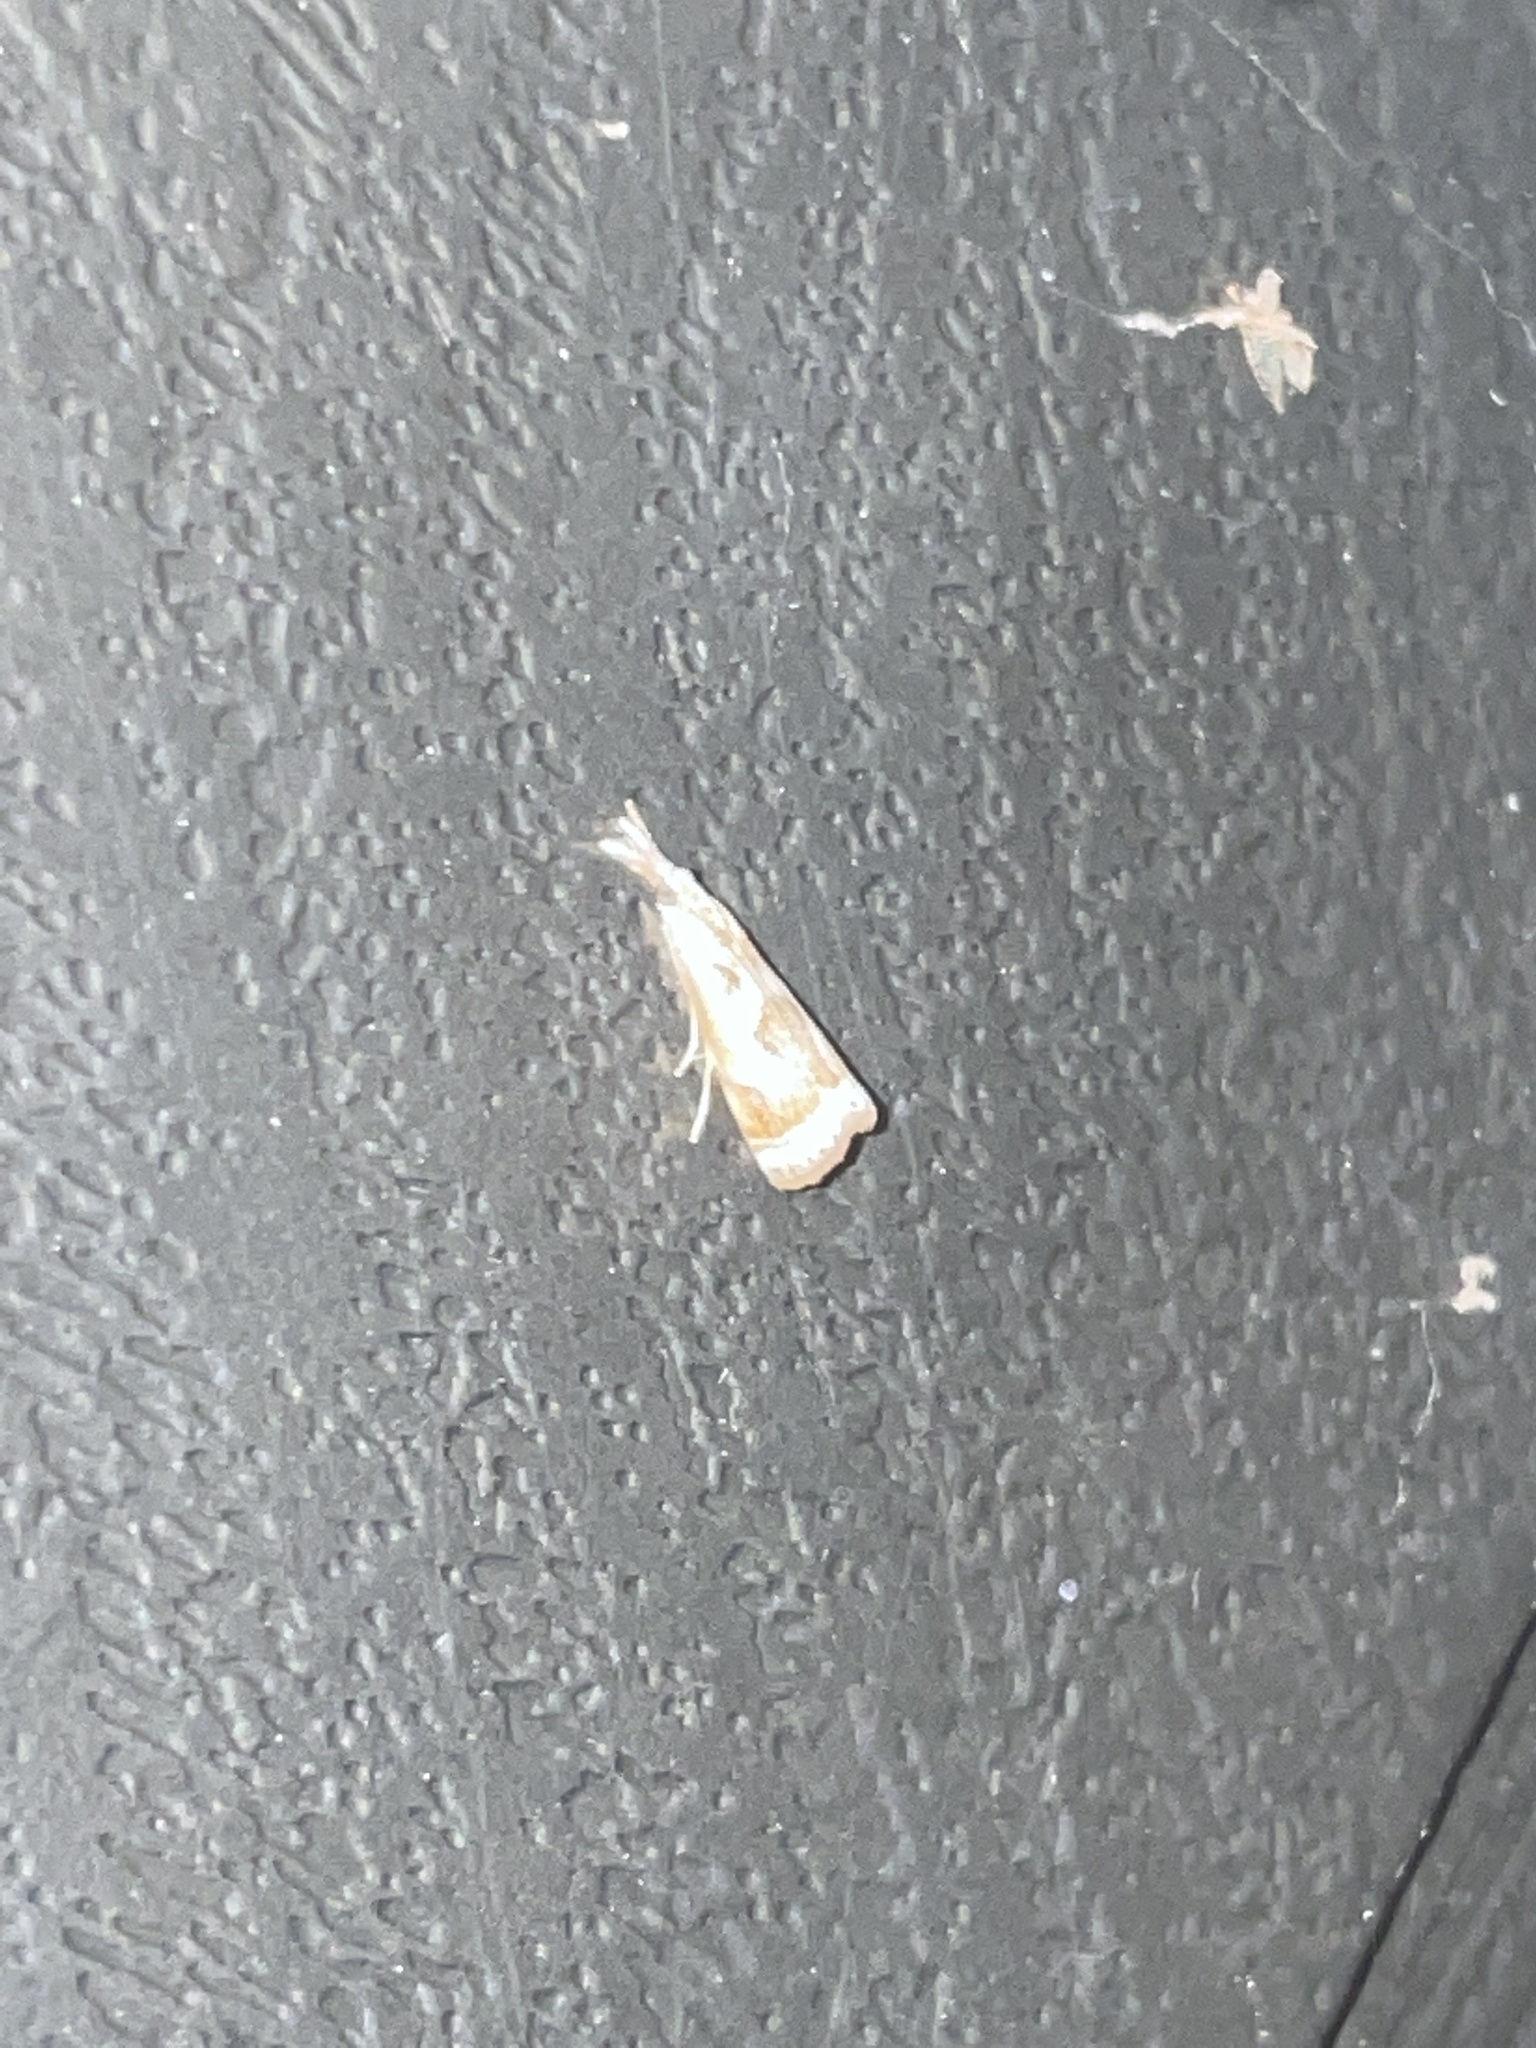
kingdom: Animalia
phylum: Arthropoda
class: Insecta
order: Lepidoptera
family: Crambidae
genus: Microcrambus
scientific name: Microcrambus elegans
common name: Elegant grass-veneer
